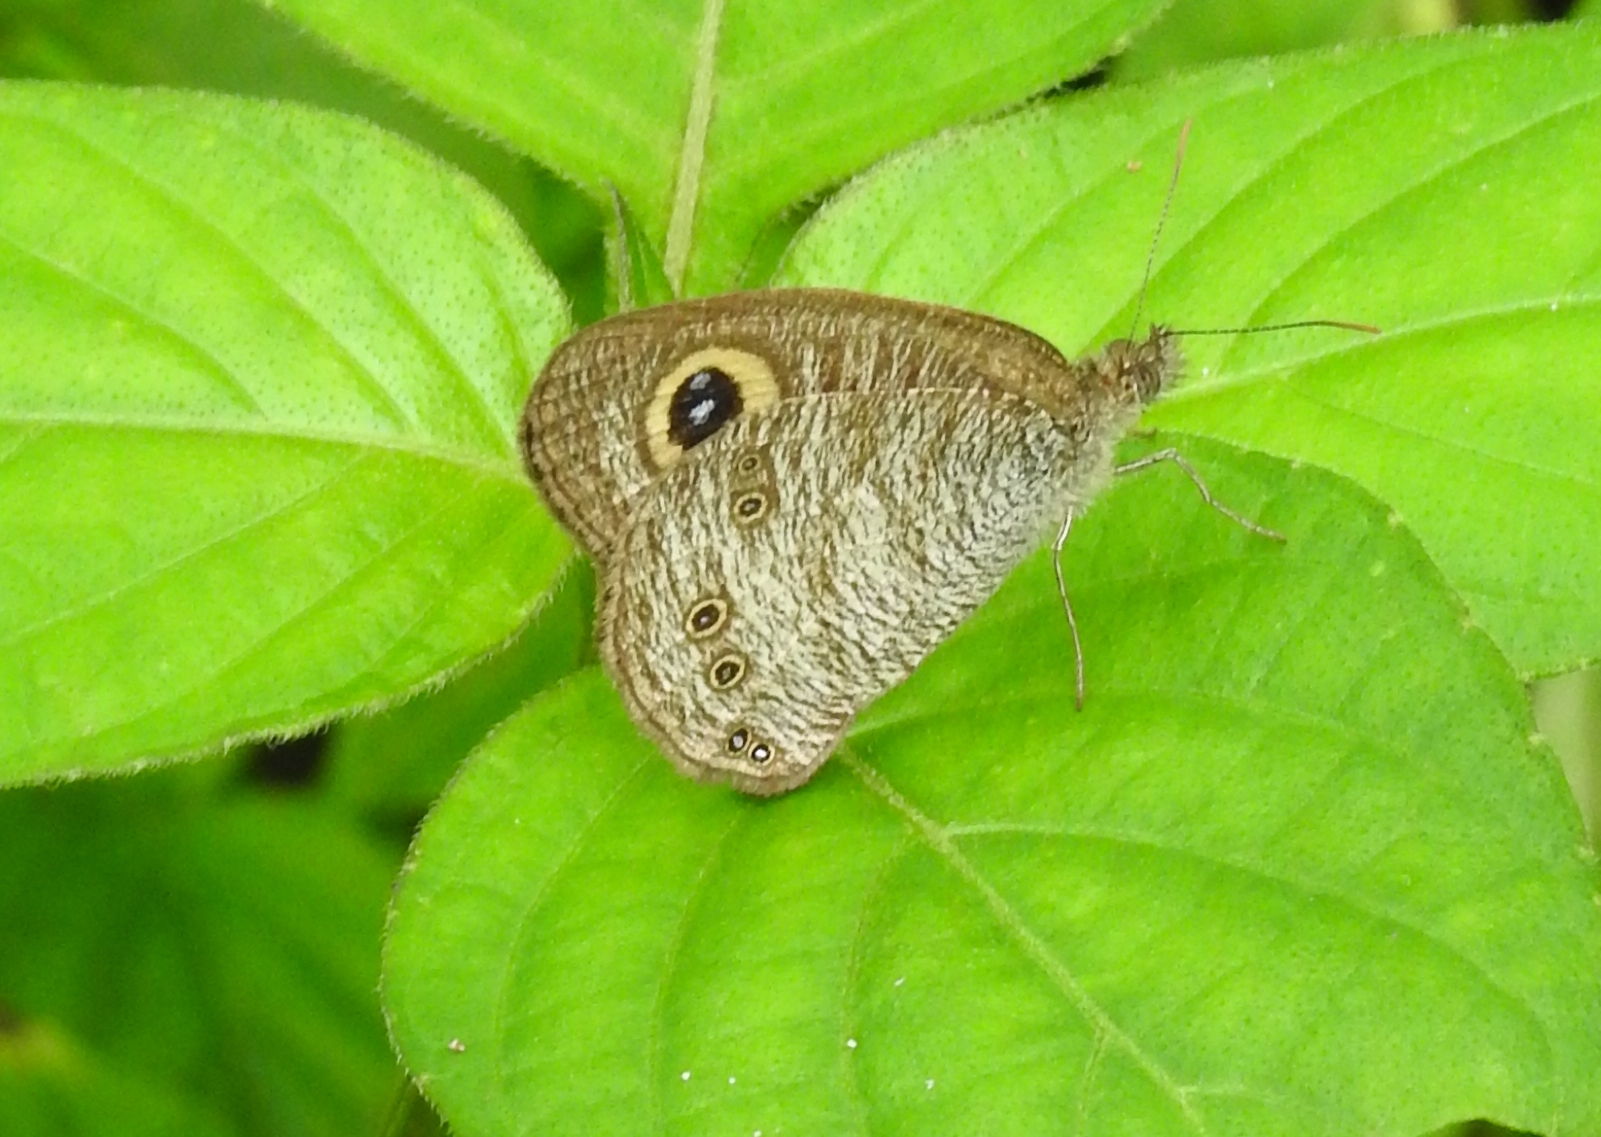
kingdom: Animalia
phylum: Arthropoda
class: Insecta
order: Lepidoptera
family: Nymphalidae
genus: Ypthima
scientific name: Ypthima baldus
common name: Common five-ring
